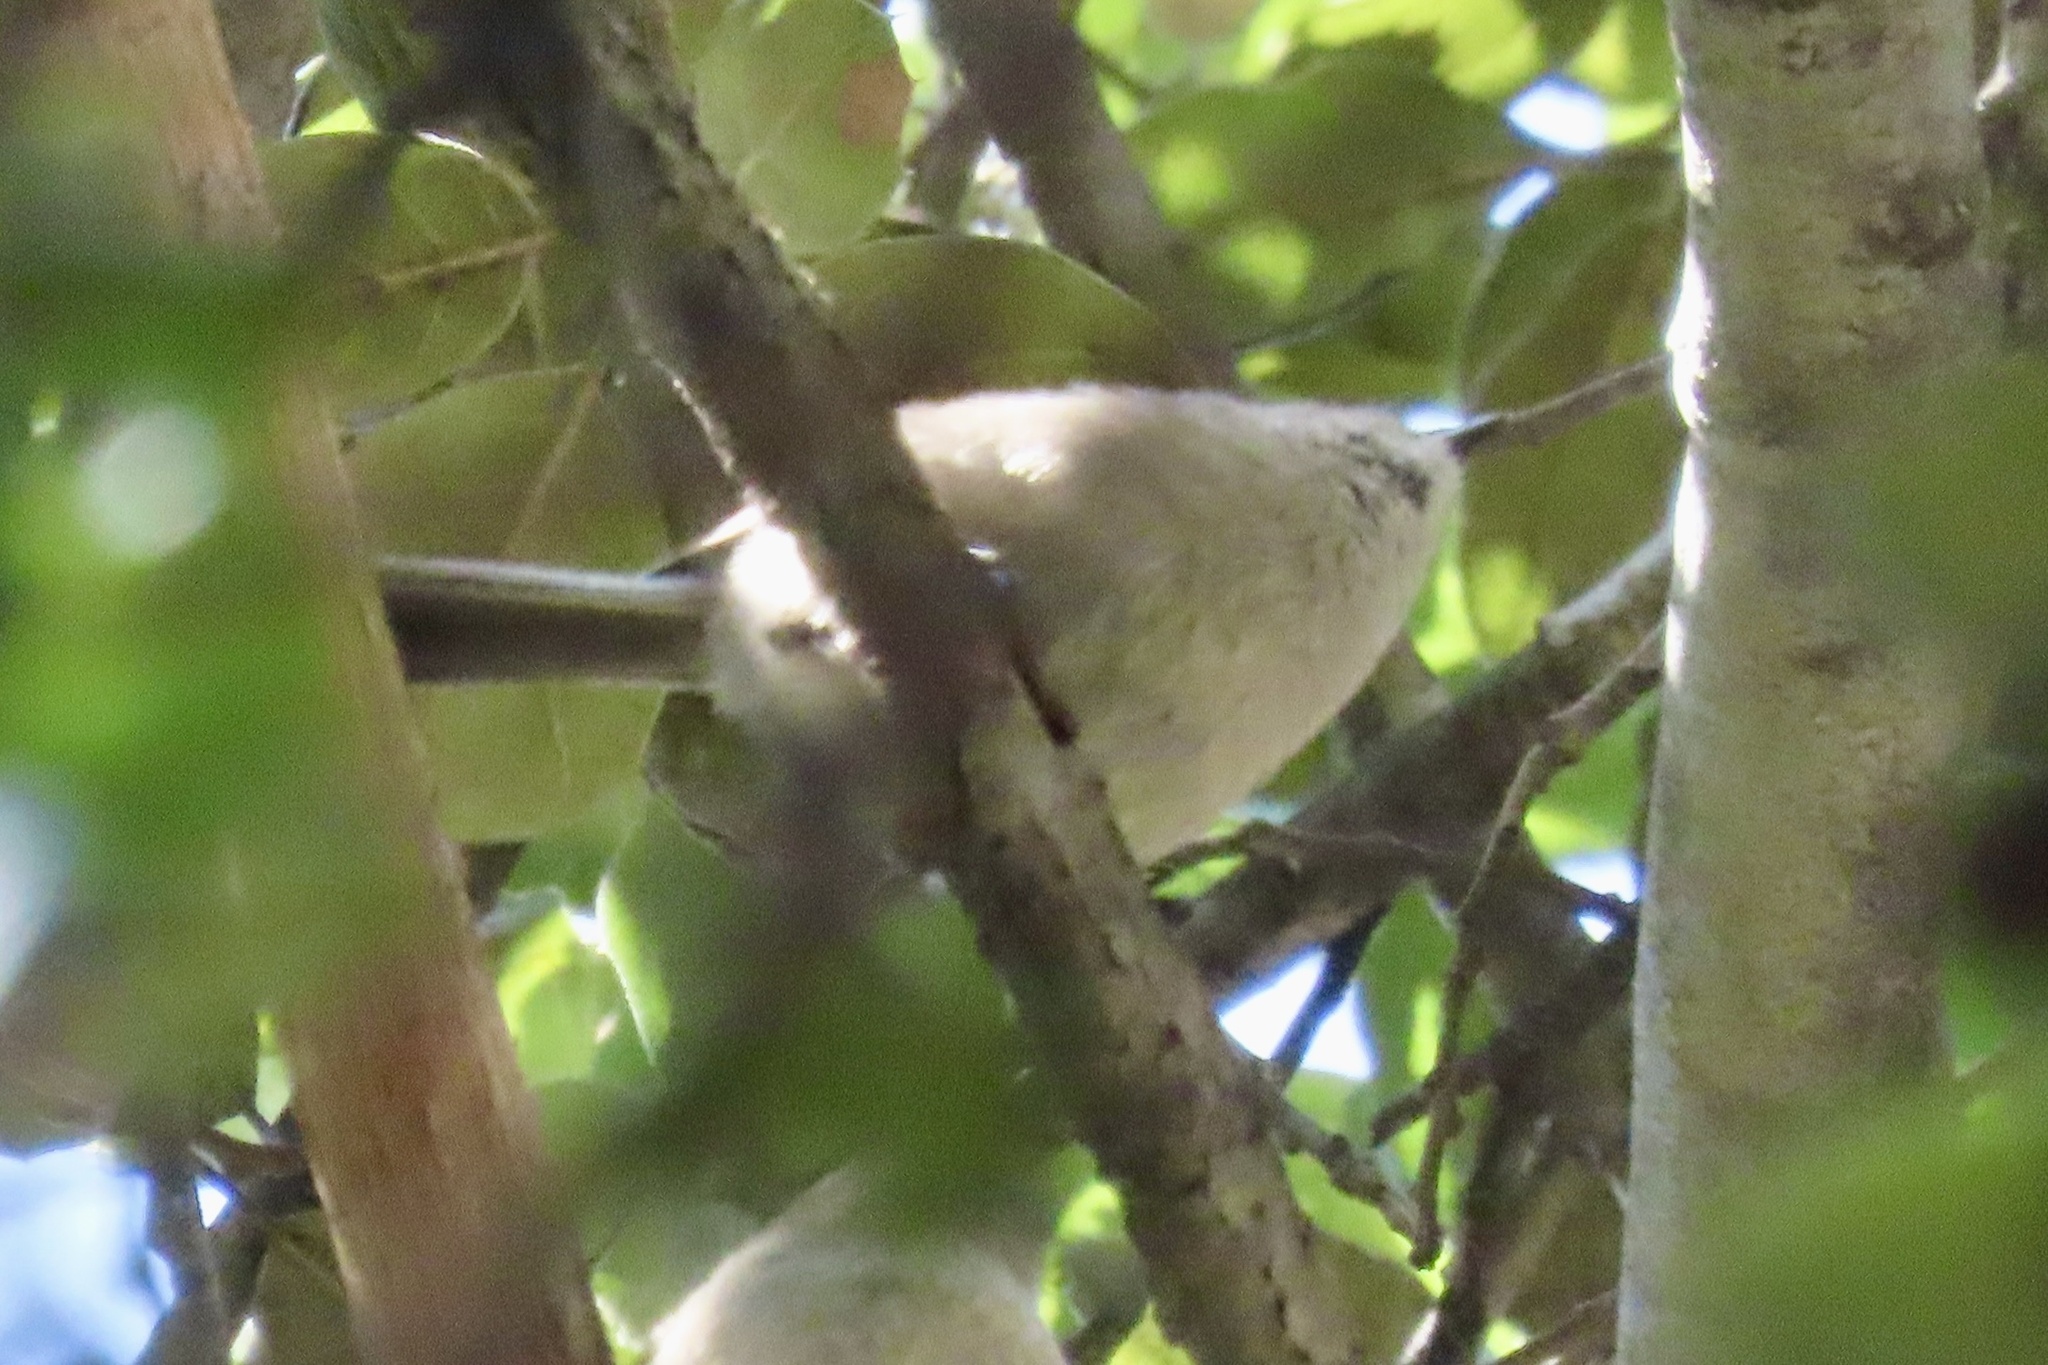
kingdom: Animalia
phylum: Chordata
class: Aves
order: Passeriformes
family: Aegithalidae
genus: Psaltriparus
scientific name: Psaltriparus minimus
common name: American bushtit
